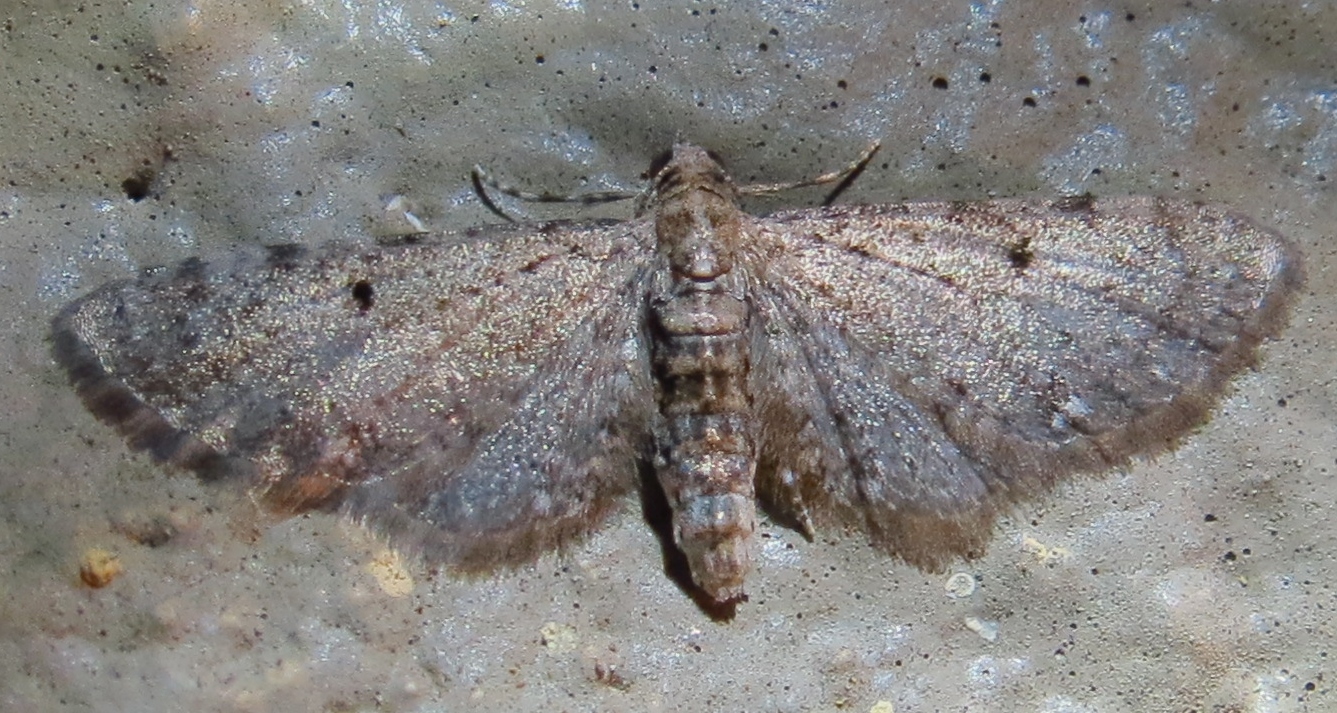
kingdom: Animalia
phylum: Arthropoda
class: Insecta
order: Lepidoptera
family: Geometridae
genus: Eupithecia
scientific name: Eupithecia miserulata
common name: Common eupithecia
